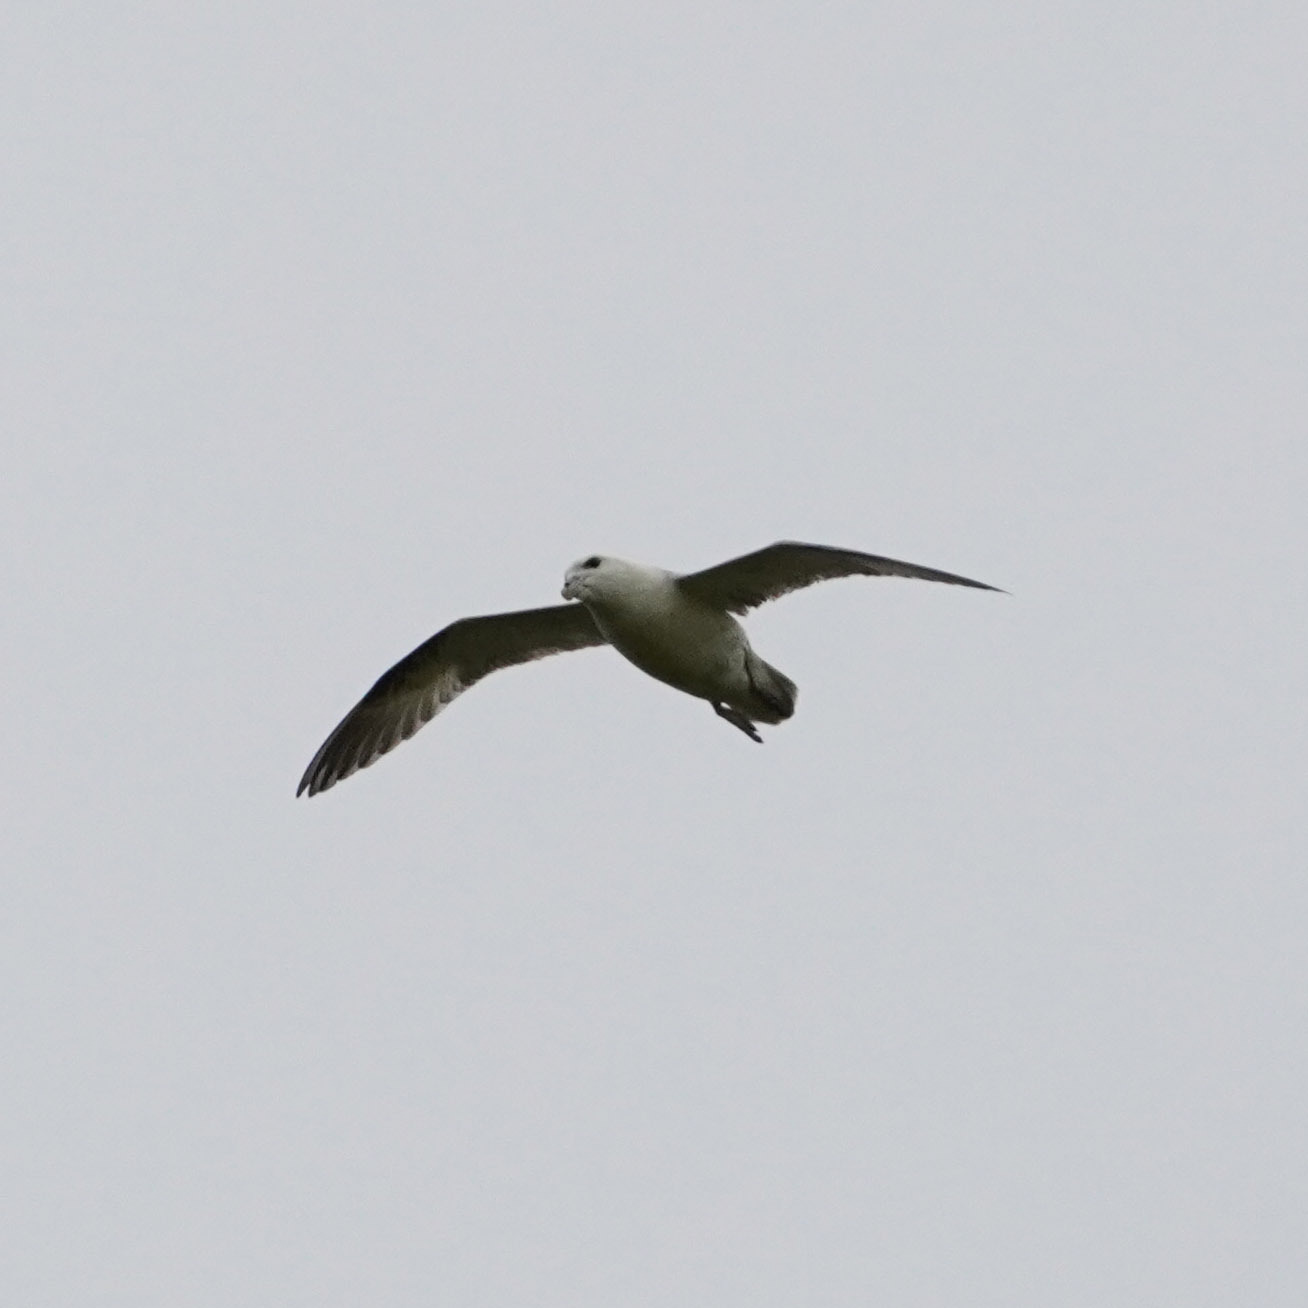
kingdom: Animalia
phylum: Chordata
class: Aves
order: Procellariiformes
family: Procellariidae
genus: Fulmarus
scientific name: Fulmarus glacialis
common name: Northern fulmar
